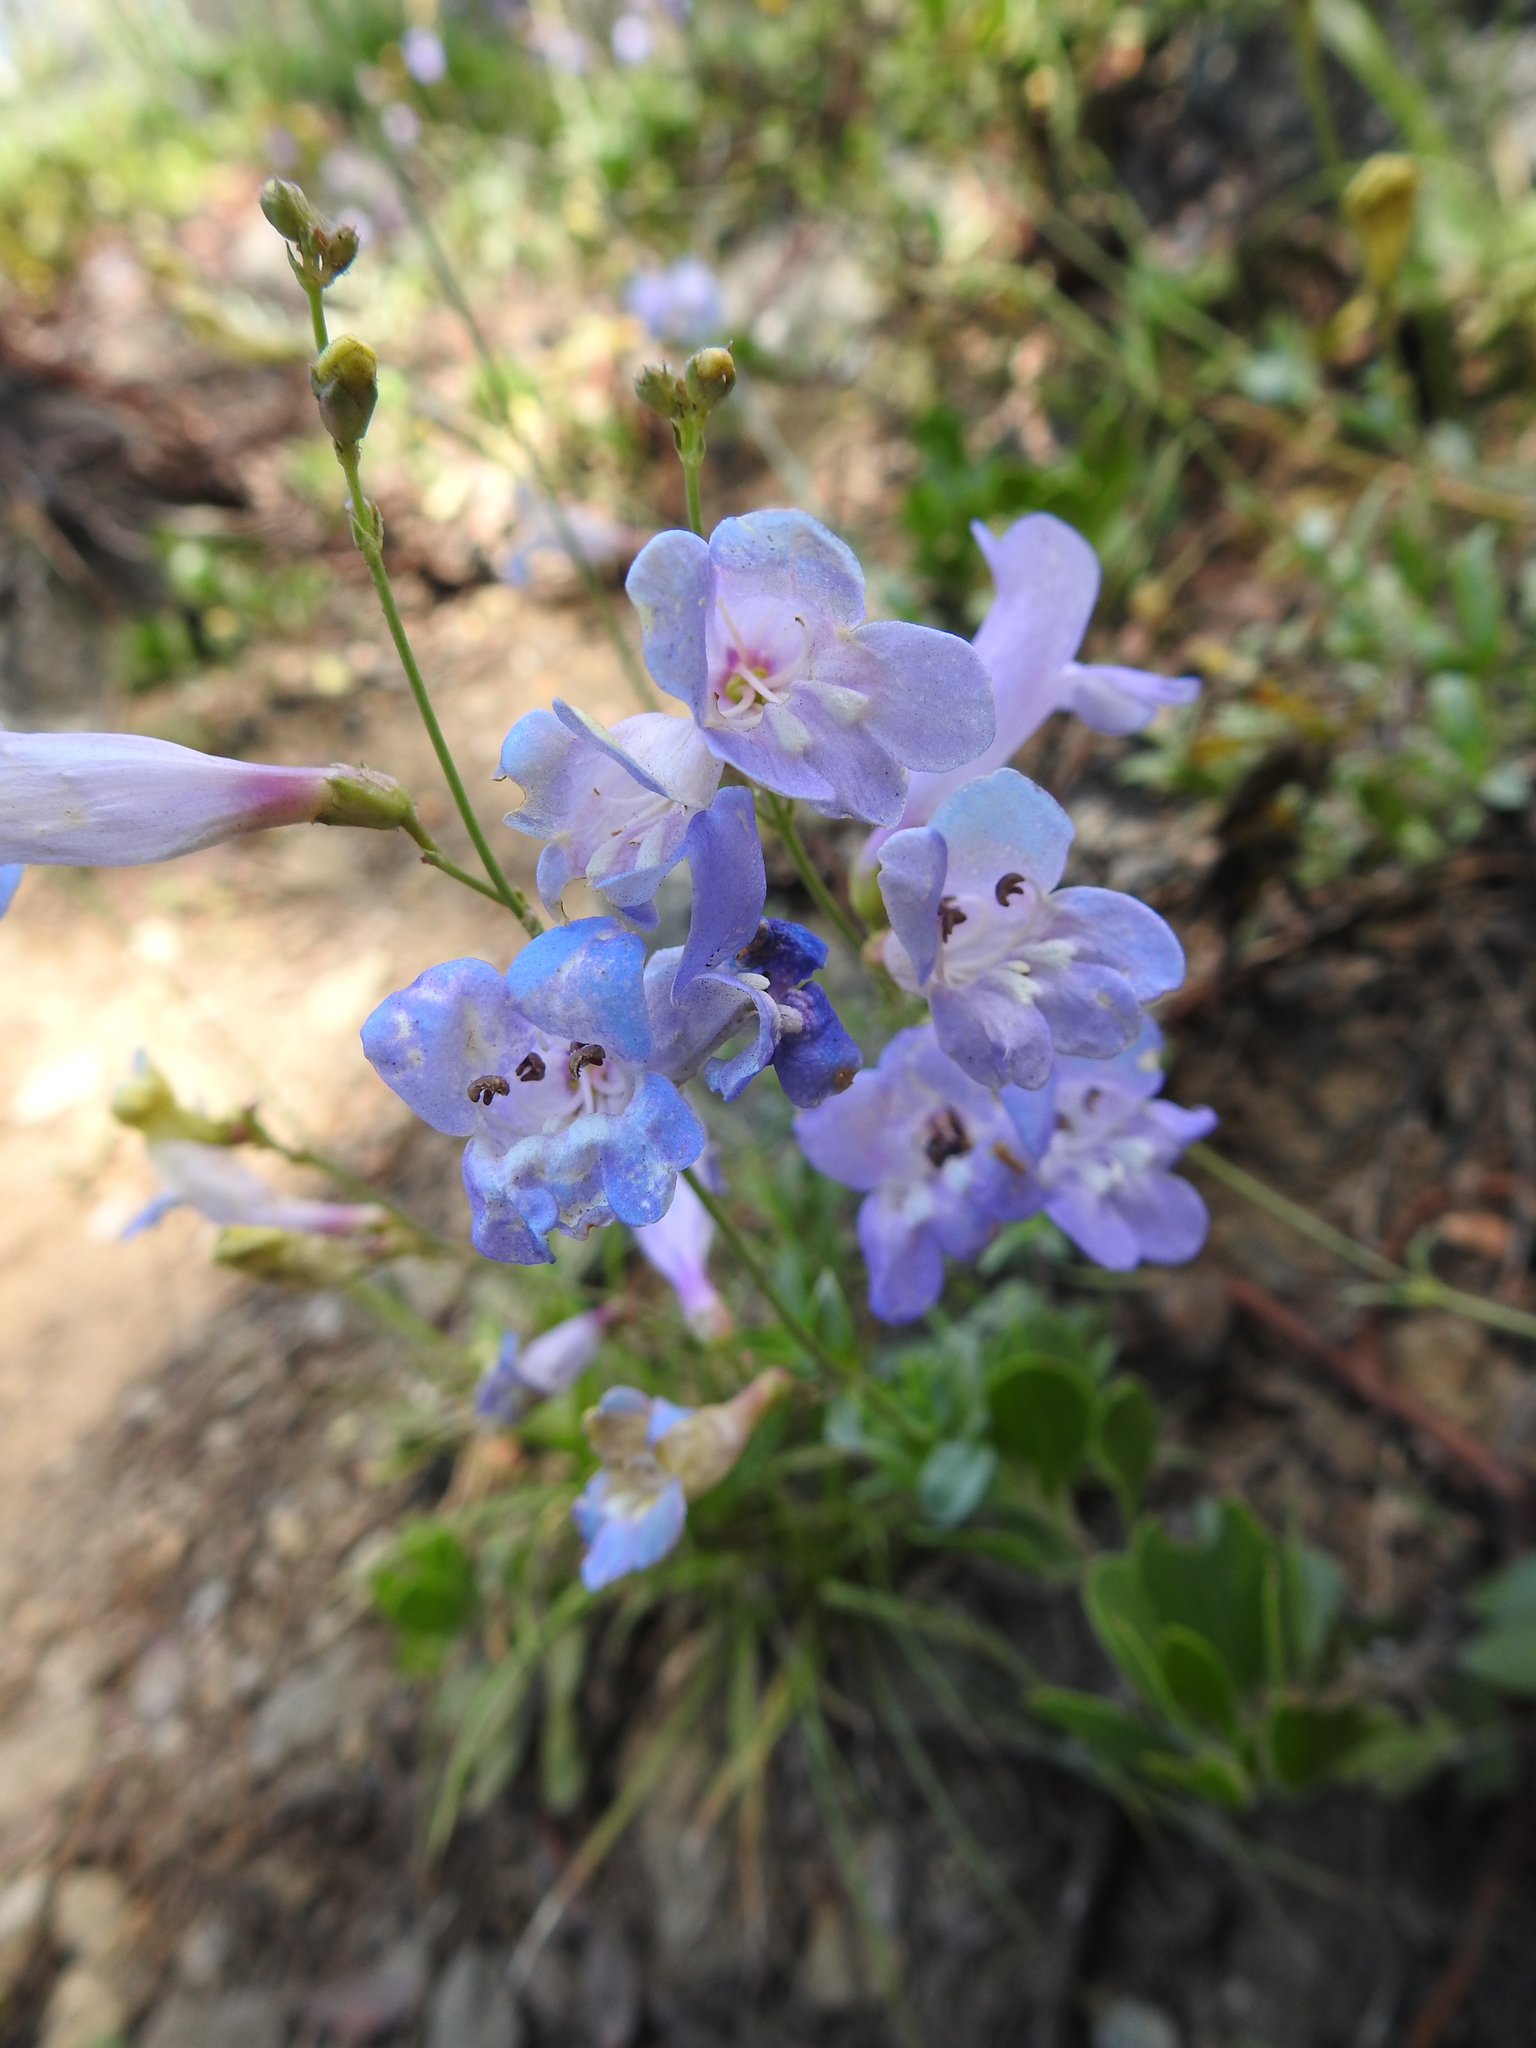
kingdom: Plantae
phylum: Tracheophyta
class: Magnoliopsida
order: Lamiales
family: Plantaginaceae
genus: Penstemon
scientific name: Penstemon laetus
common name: Gay penstemon
